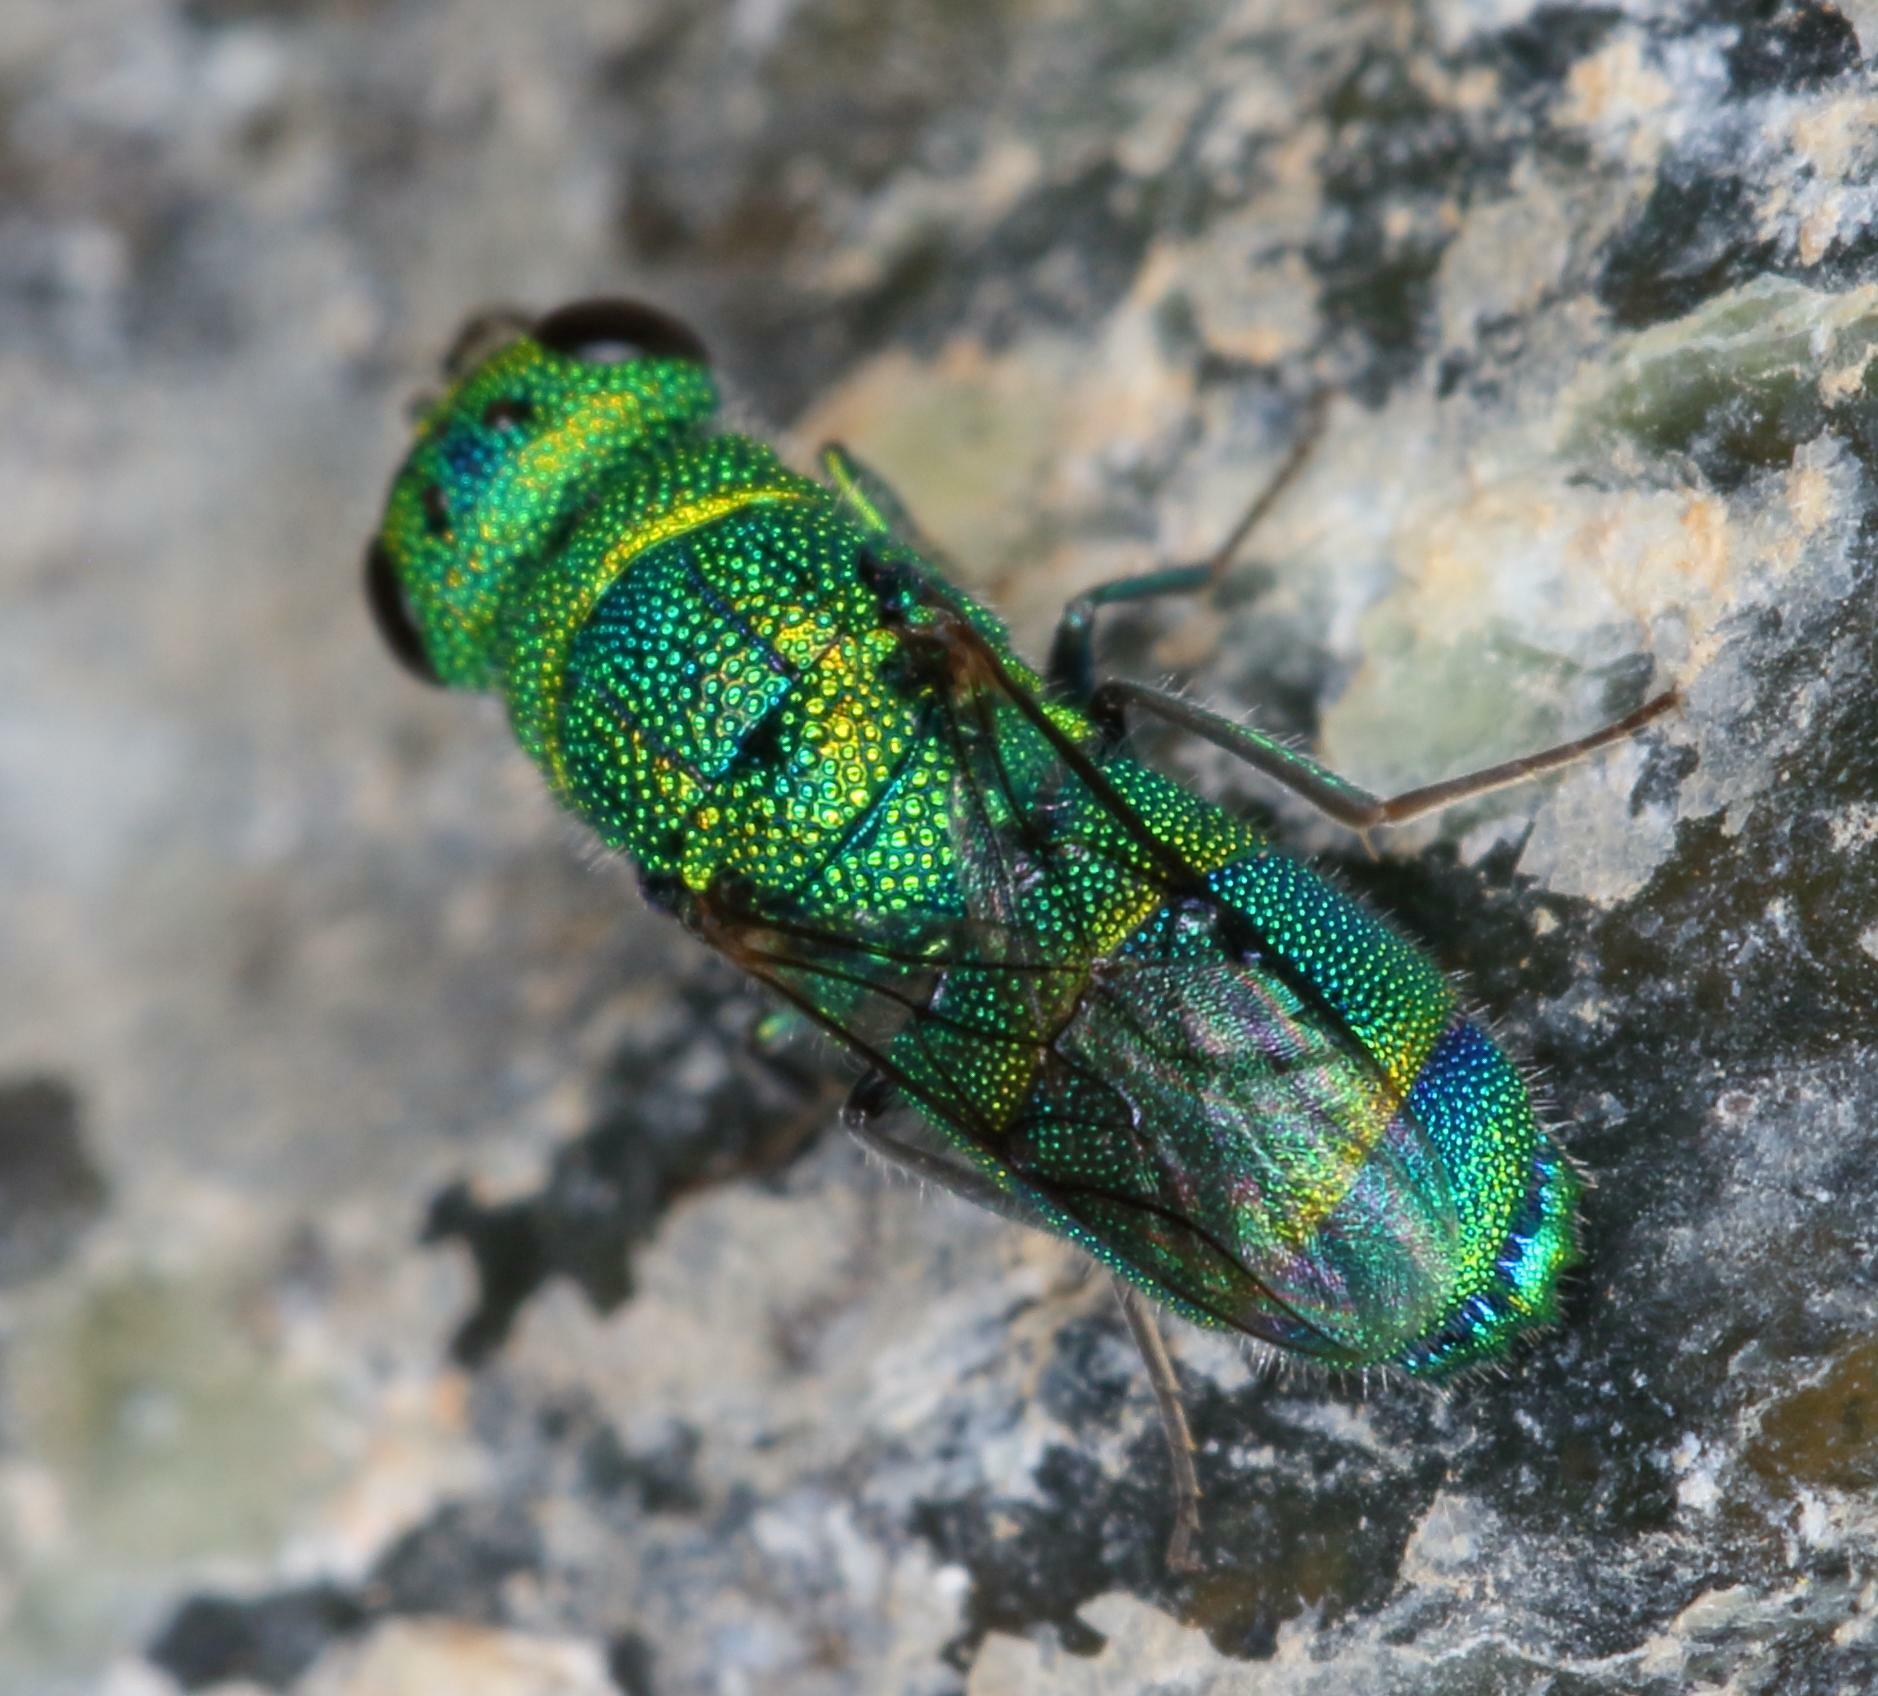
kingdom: Animalia
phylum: Arthropoda
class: Insecta
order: Hymenoptera
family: Chrysididae
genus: Praestochrysis
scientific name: Praestochrysis
